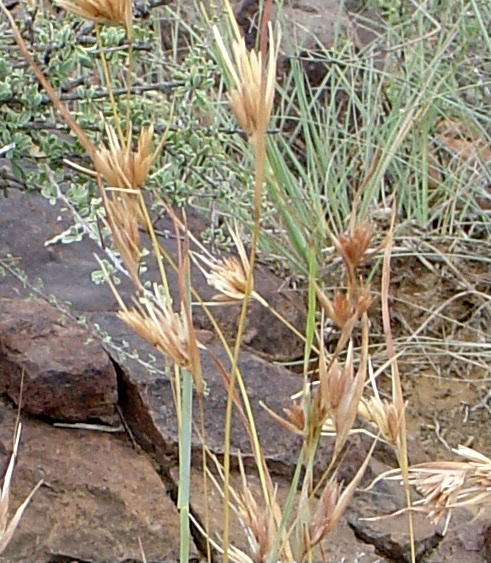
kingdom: Plantae
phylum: Tracheophyta
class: Liliopsida
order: Poales
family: Poaceae
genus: Themeda
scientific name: Themeda triandra
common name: Kangaroo grass
